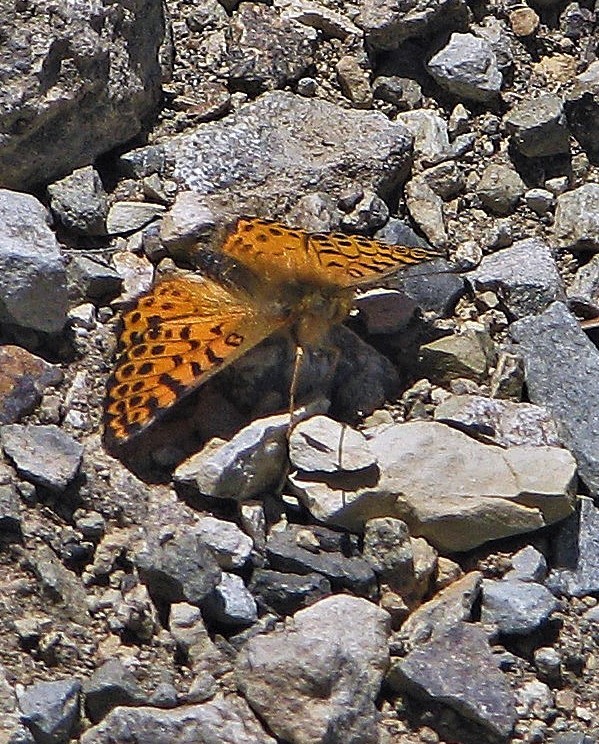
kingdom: Animalia
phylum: Arthropoda
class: Insecta
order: Lepidoptera
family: Nymphalidae
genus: Issoria
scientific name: Issoria Yramea lathonoides
